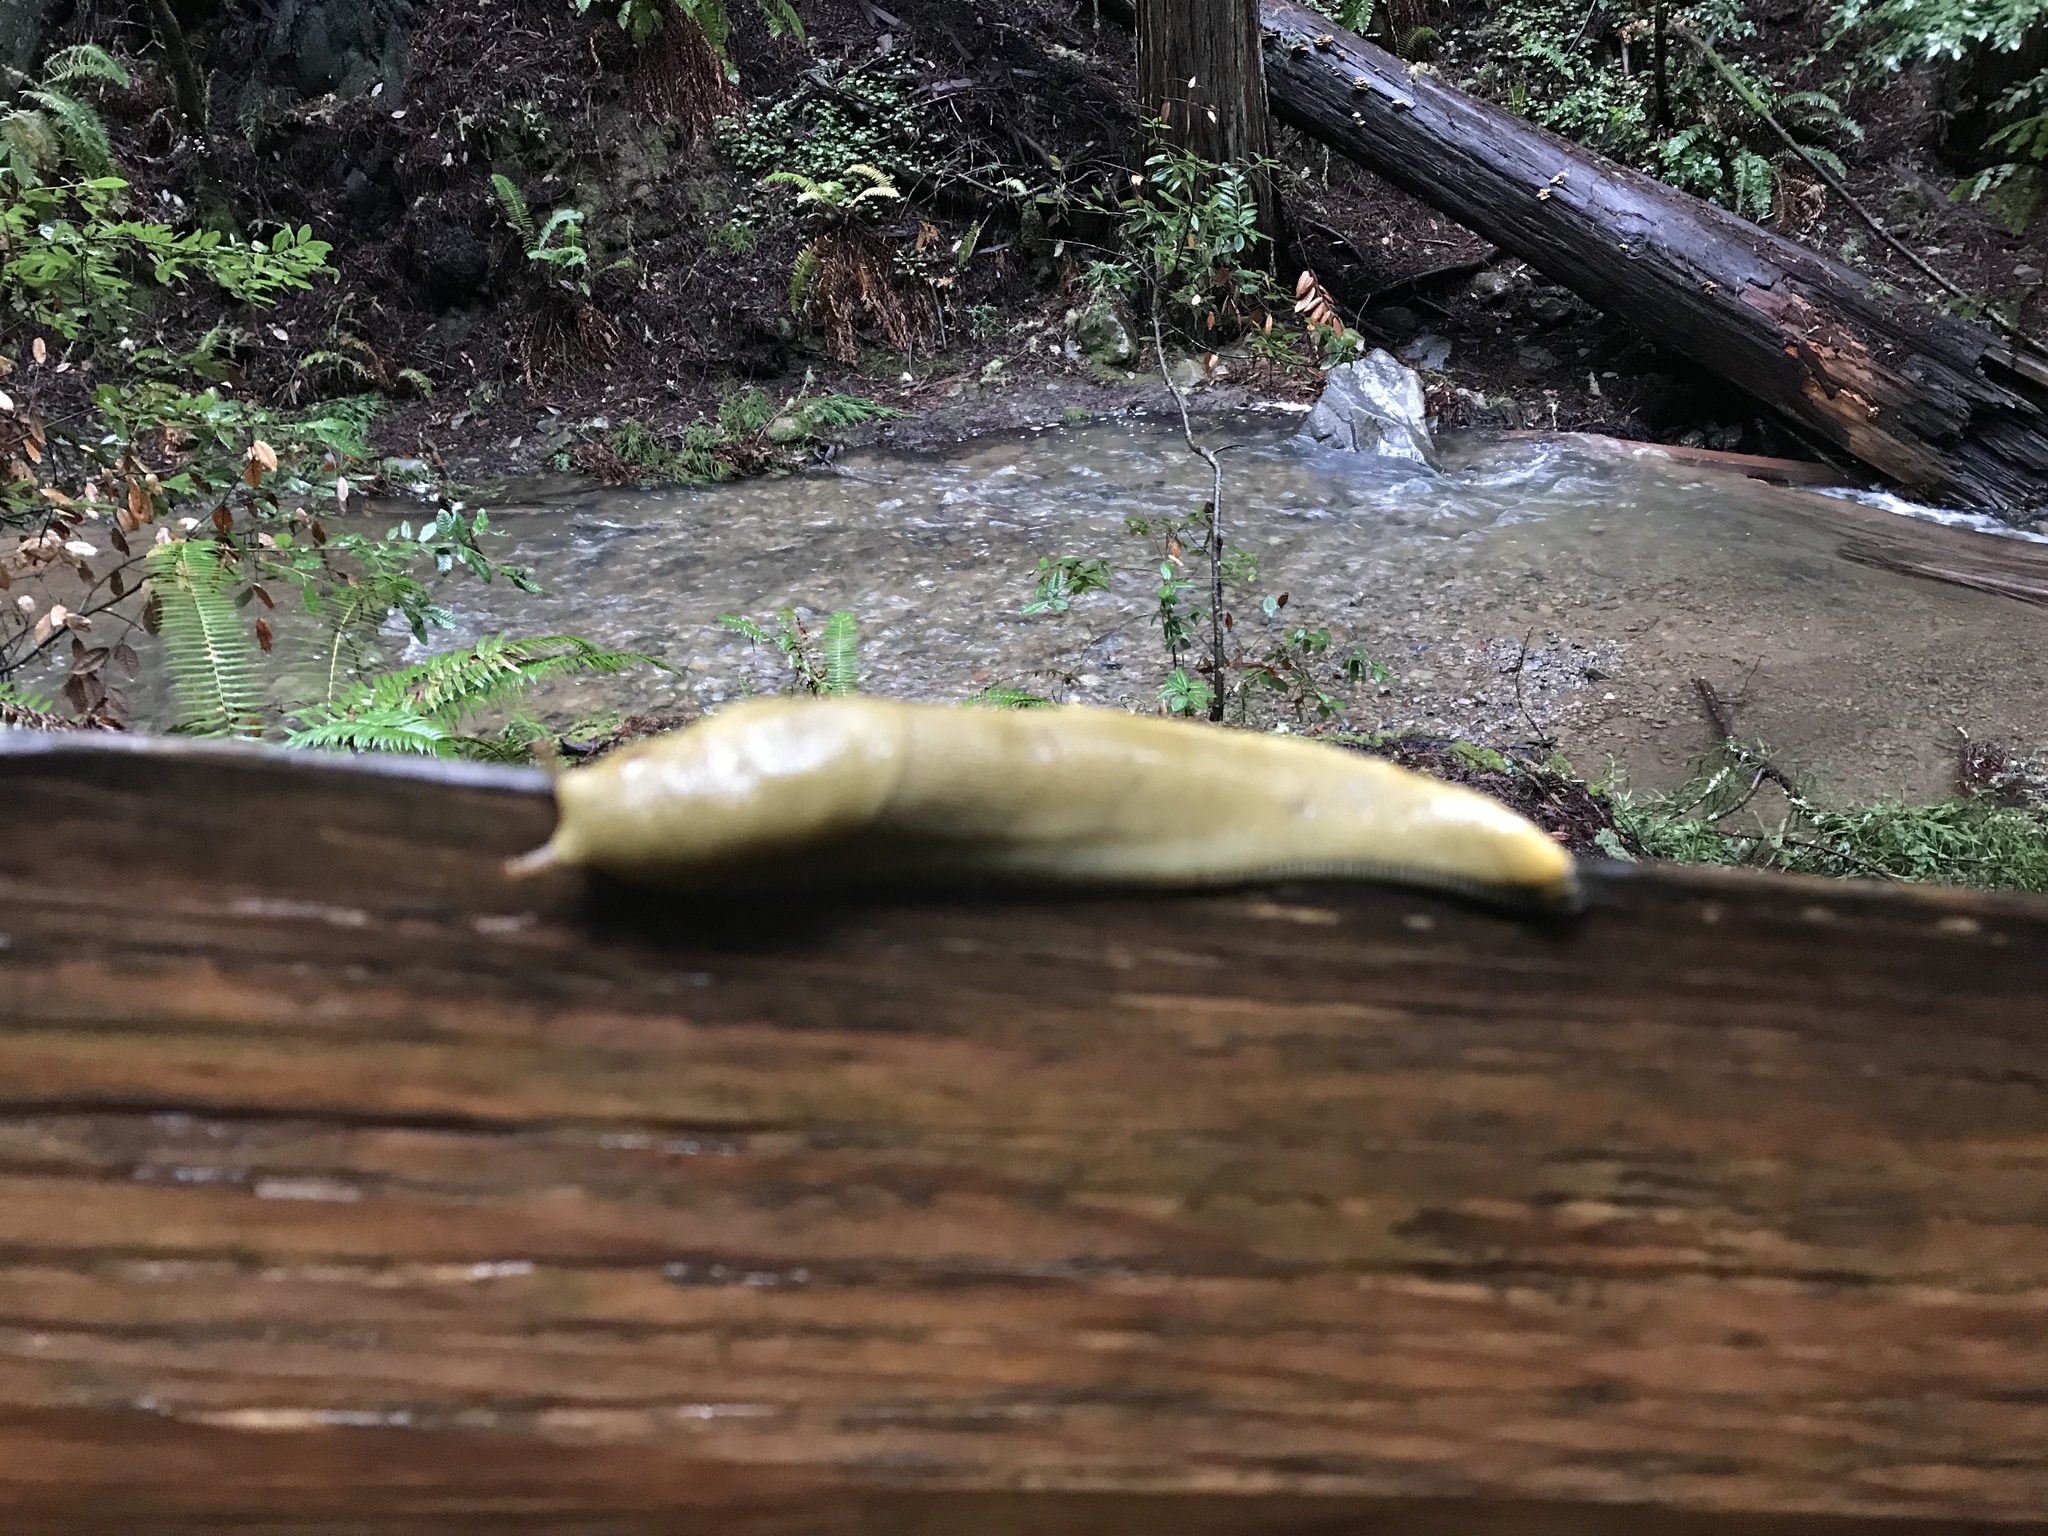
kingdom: Animalia
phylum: Mollusca
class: Gastropoda
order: Stylommatophora
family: Ariolimacidae
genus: Ariolimax
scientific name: Ariolimax buttoni
